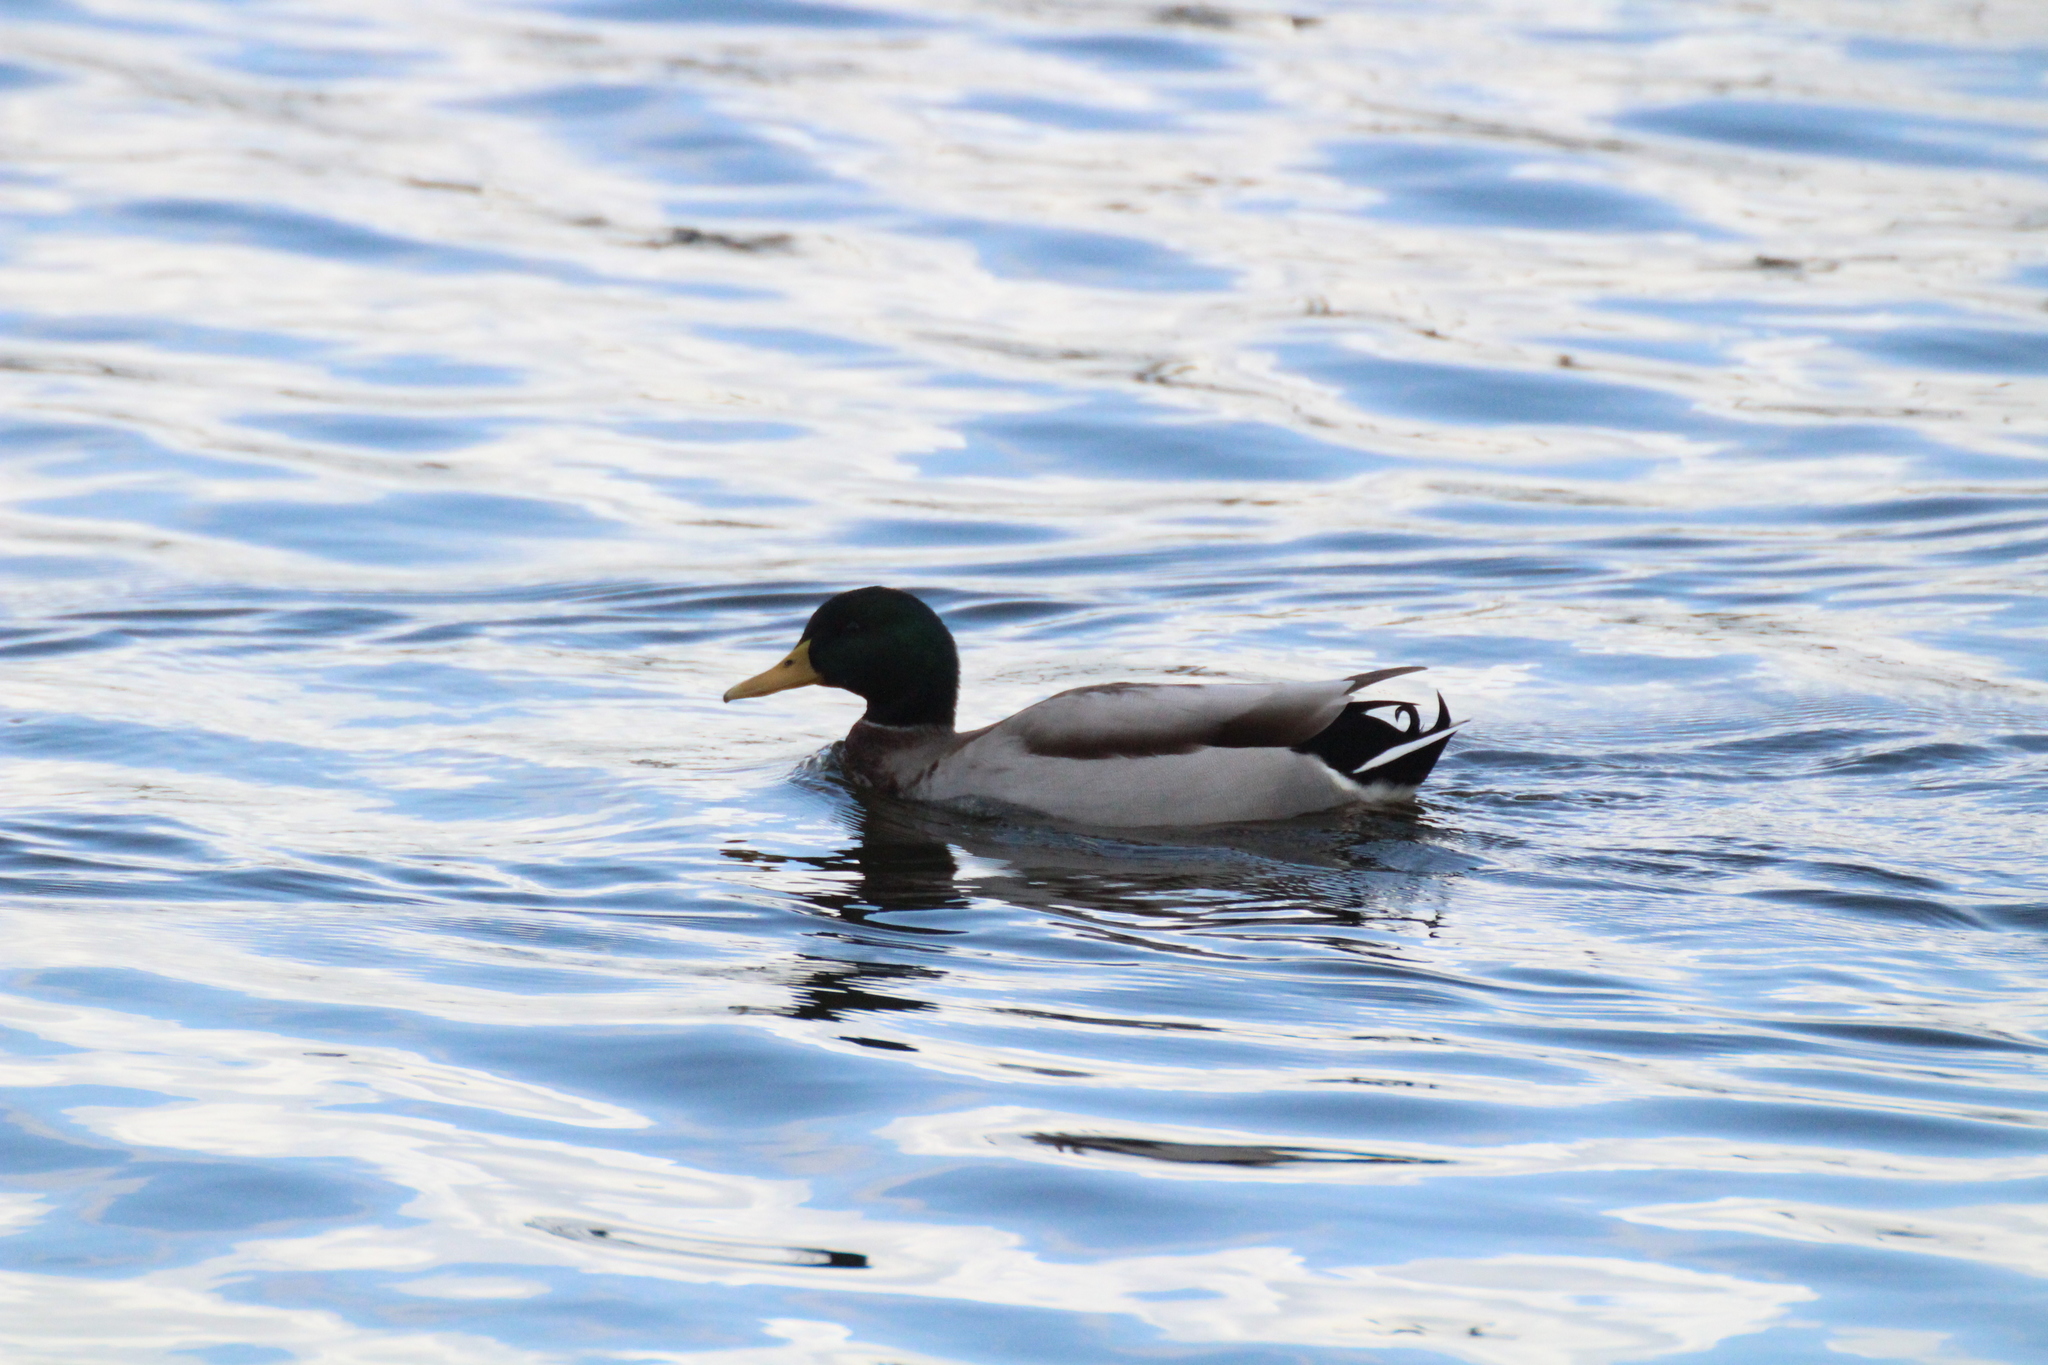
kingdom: Animalia
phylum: Chordata
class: Aves
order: Anseriformes
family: Anatidae
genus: Anas
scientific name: Anas platyrhynchos
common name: Mallard
